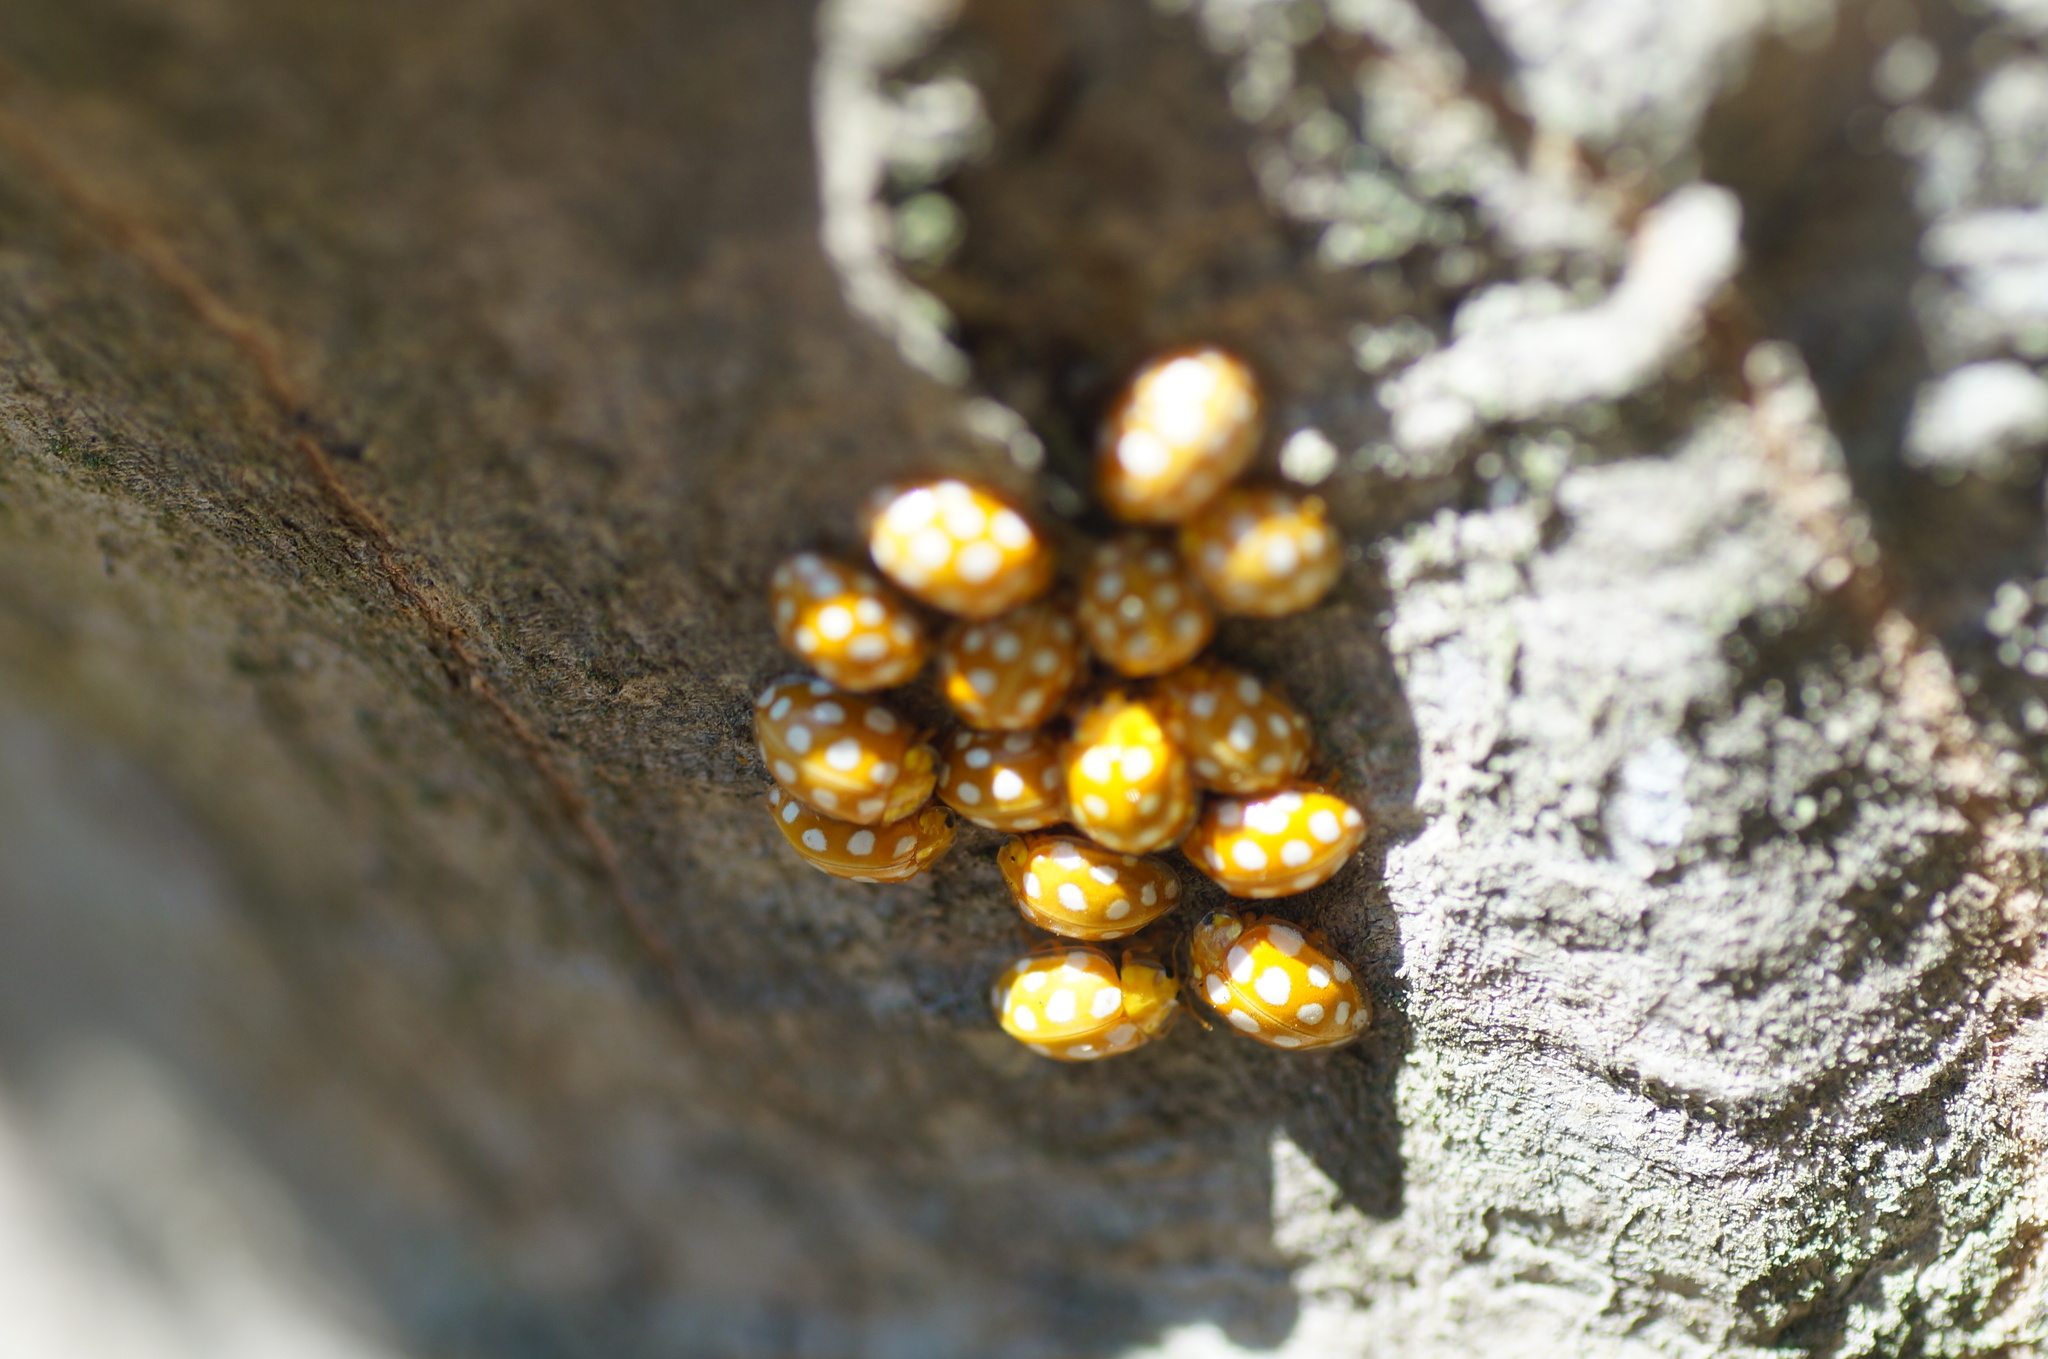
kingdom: Animalia
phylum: Arthropoda
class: Insecta
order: Coleoptera
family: Coccinellidae
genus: Halyzia
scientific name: Halyzia sedecimguttata
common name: Orange ladybird
